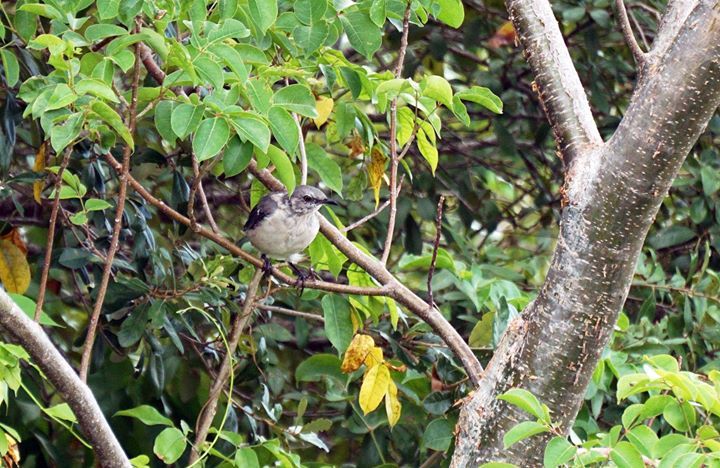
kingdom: Animalia
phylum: Chordata
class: Aves
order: Passeriformes
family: Mimidae
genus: Mimus
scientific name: Mimus polyglottos
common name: Northern mockingbird
